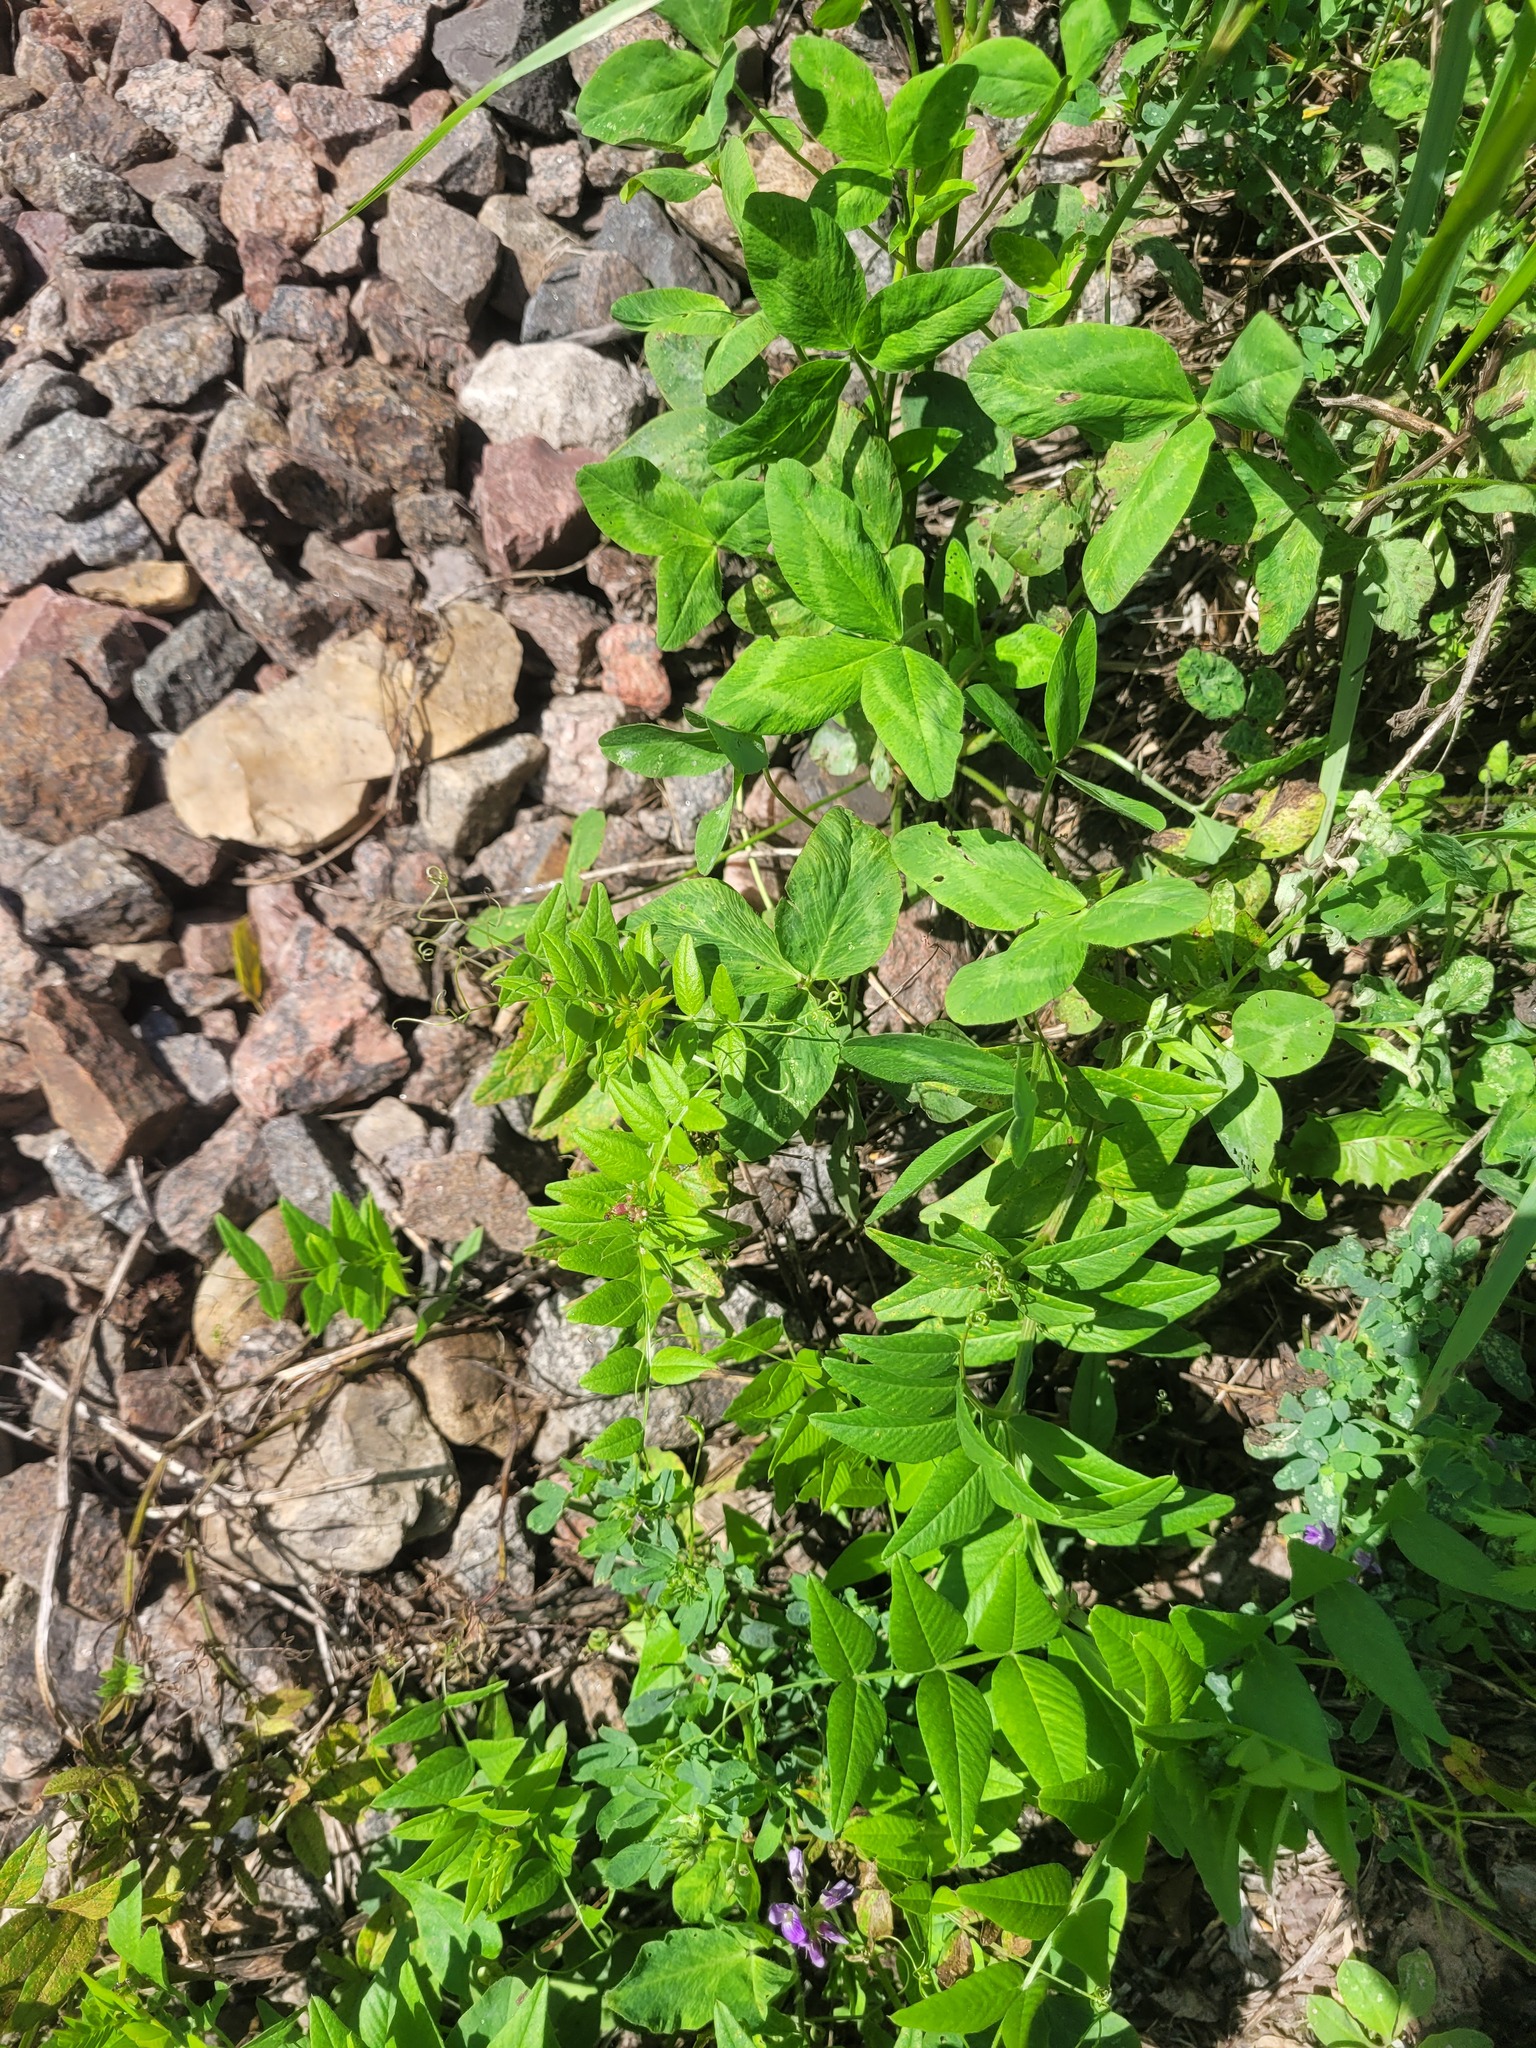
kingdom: Plantae
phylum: Tracheophyta
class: Magnoliopsida
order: Fabales
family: Fabaceae
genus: Vicia
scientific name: Vicia sepium
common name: Bush vetch
